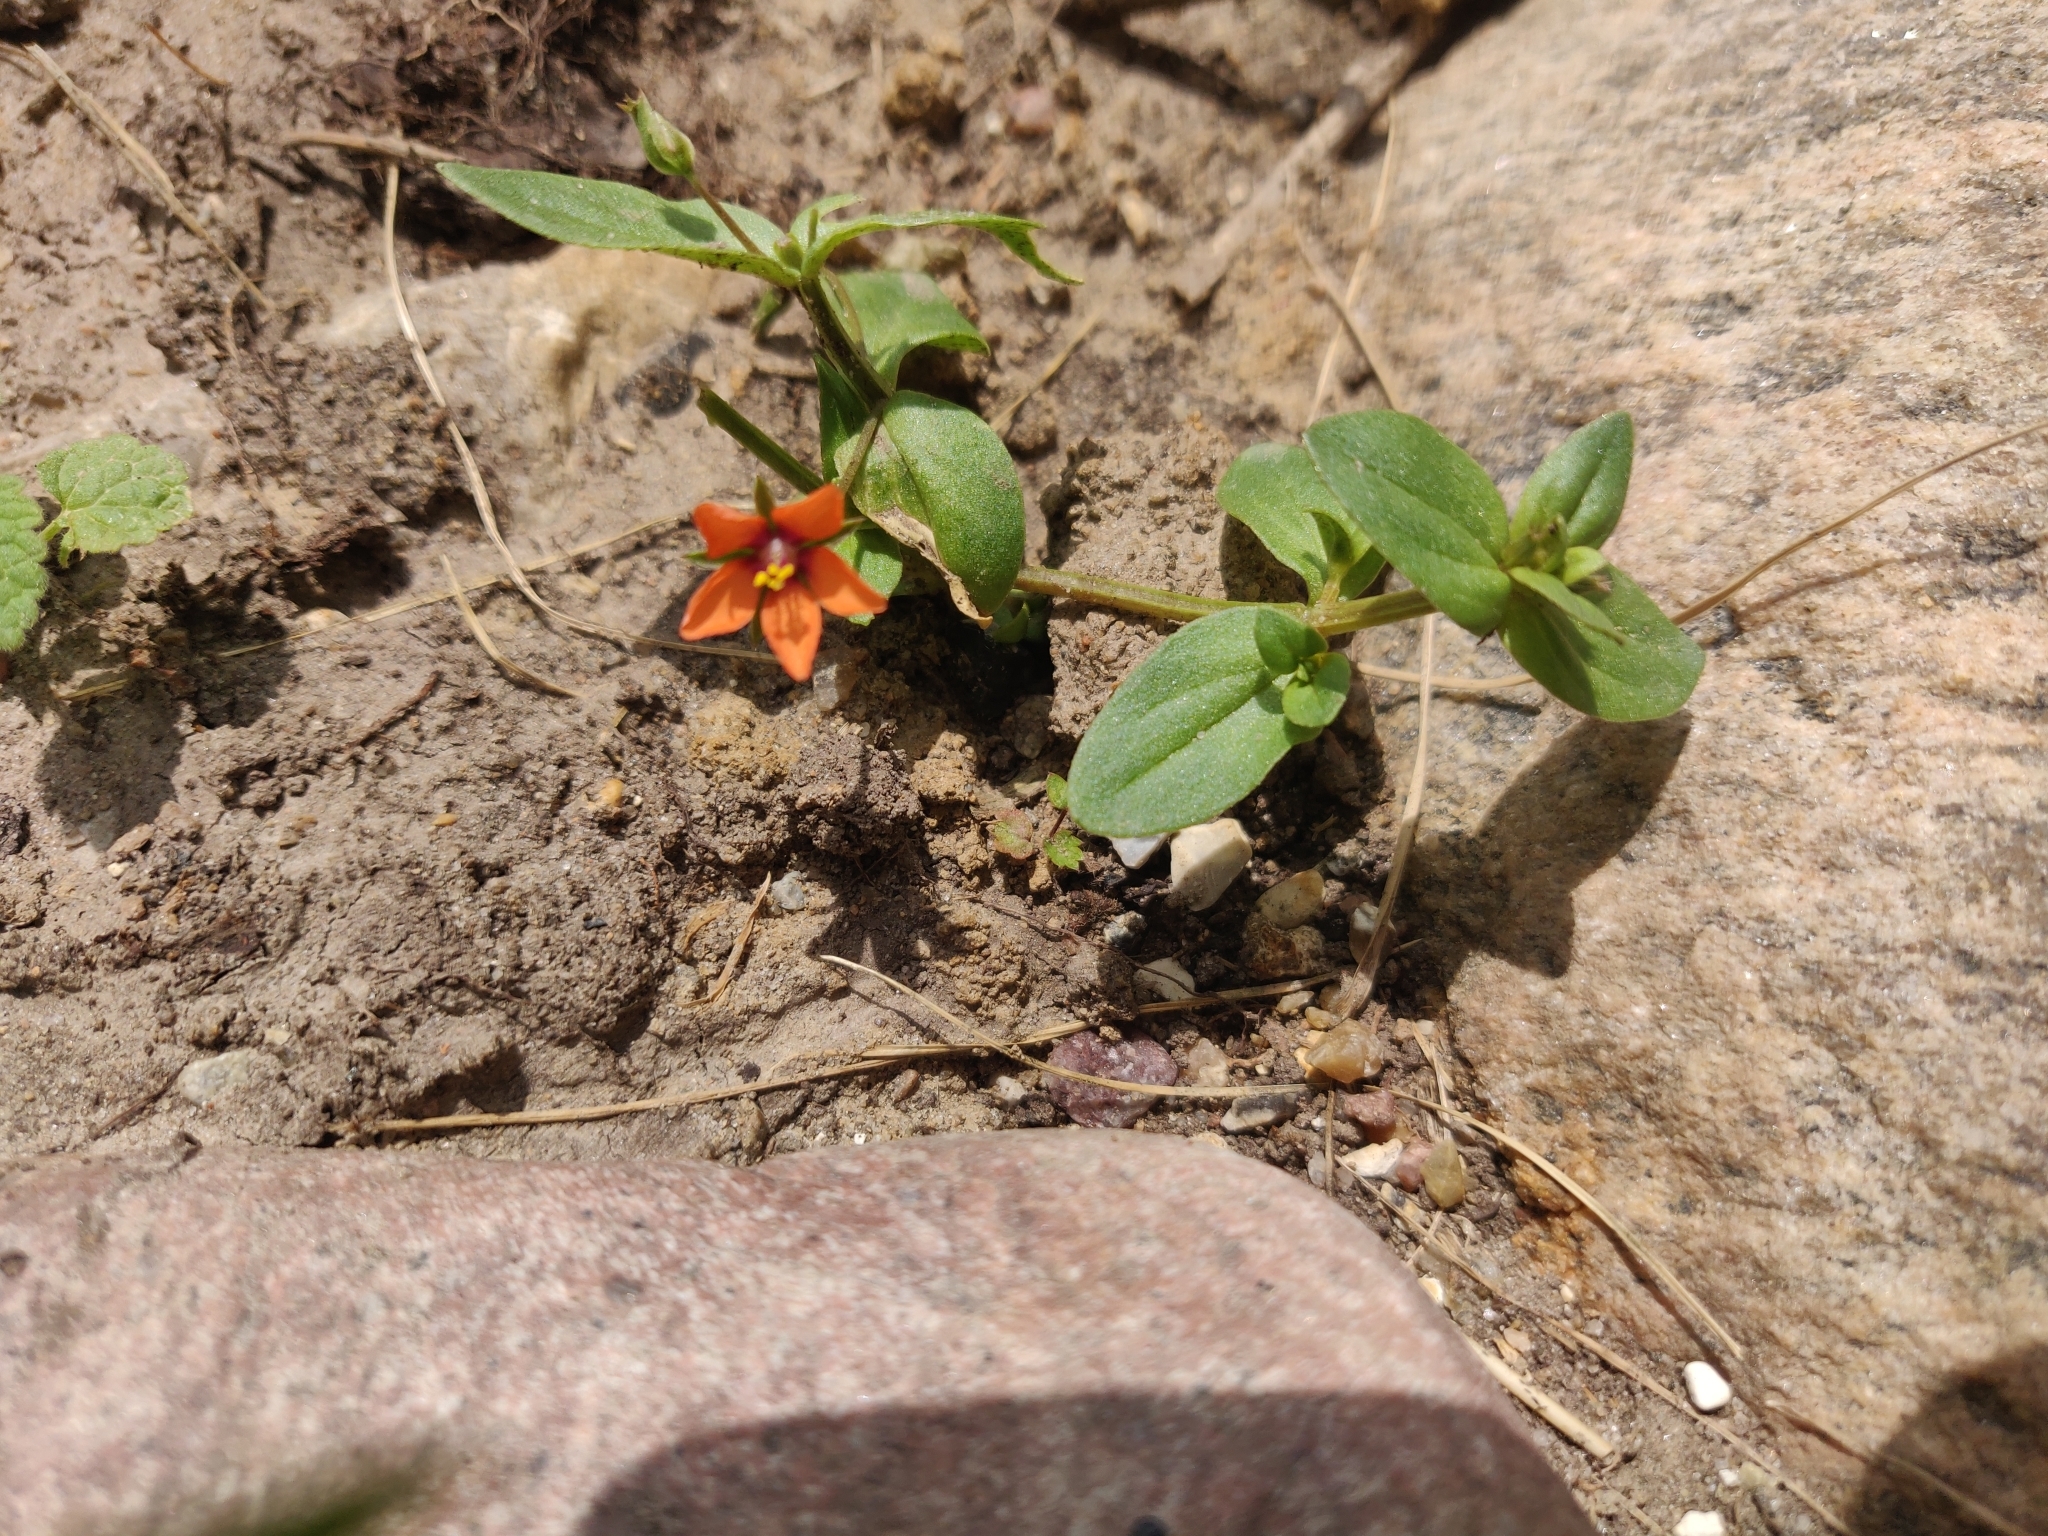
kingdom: Plantae
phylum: Tracheophyta
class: Magnoliopsida
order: Ericales
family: Primulaceae
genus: Lysimachia
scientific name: Lysimachia arvensis
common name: Scarlet pimpernel
